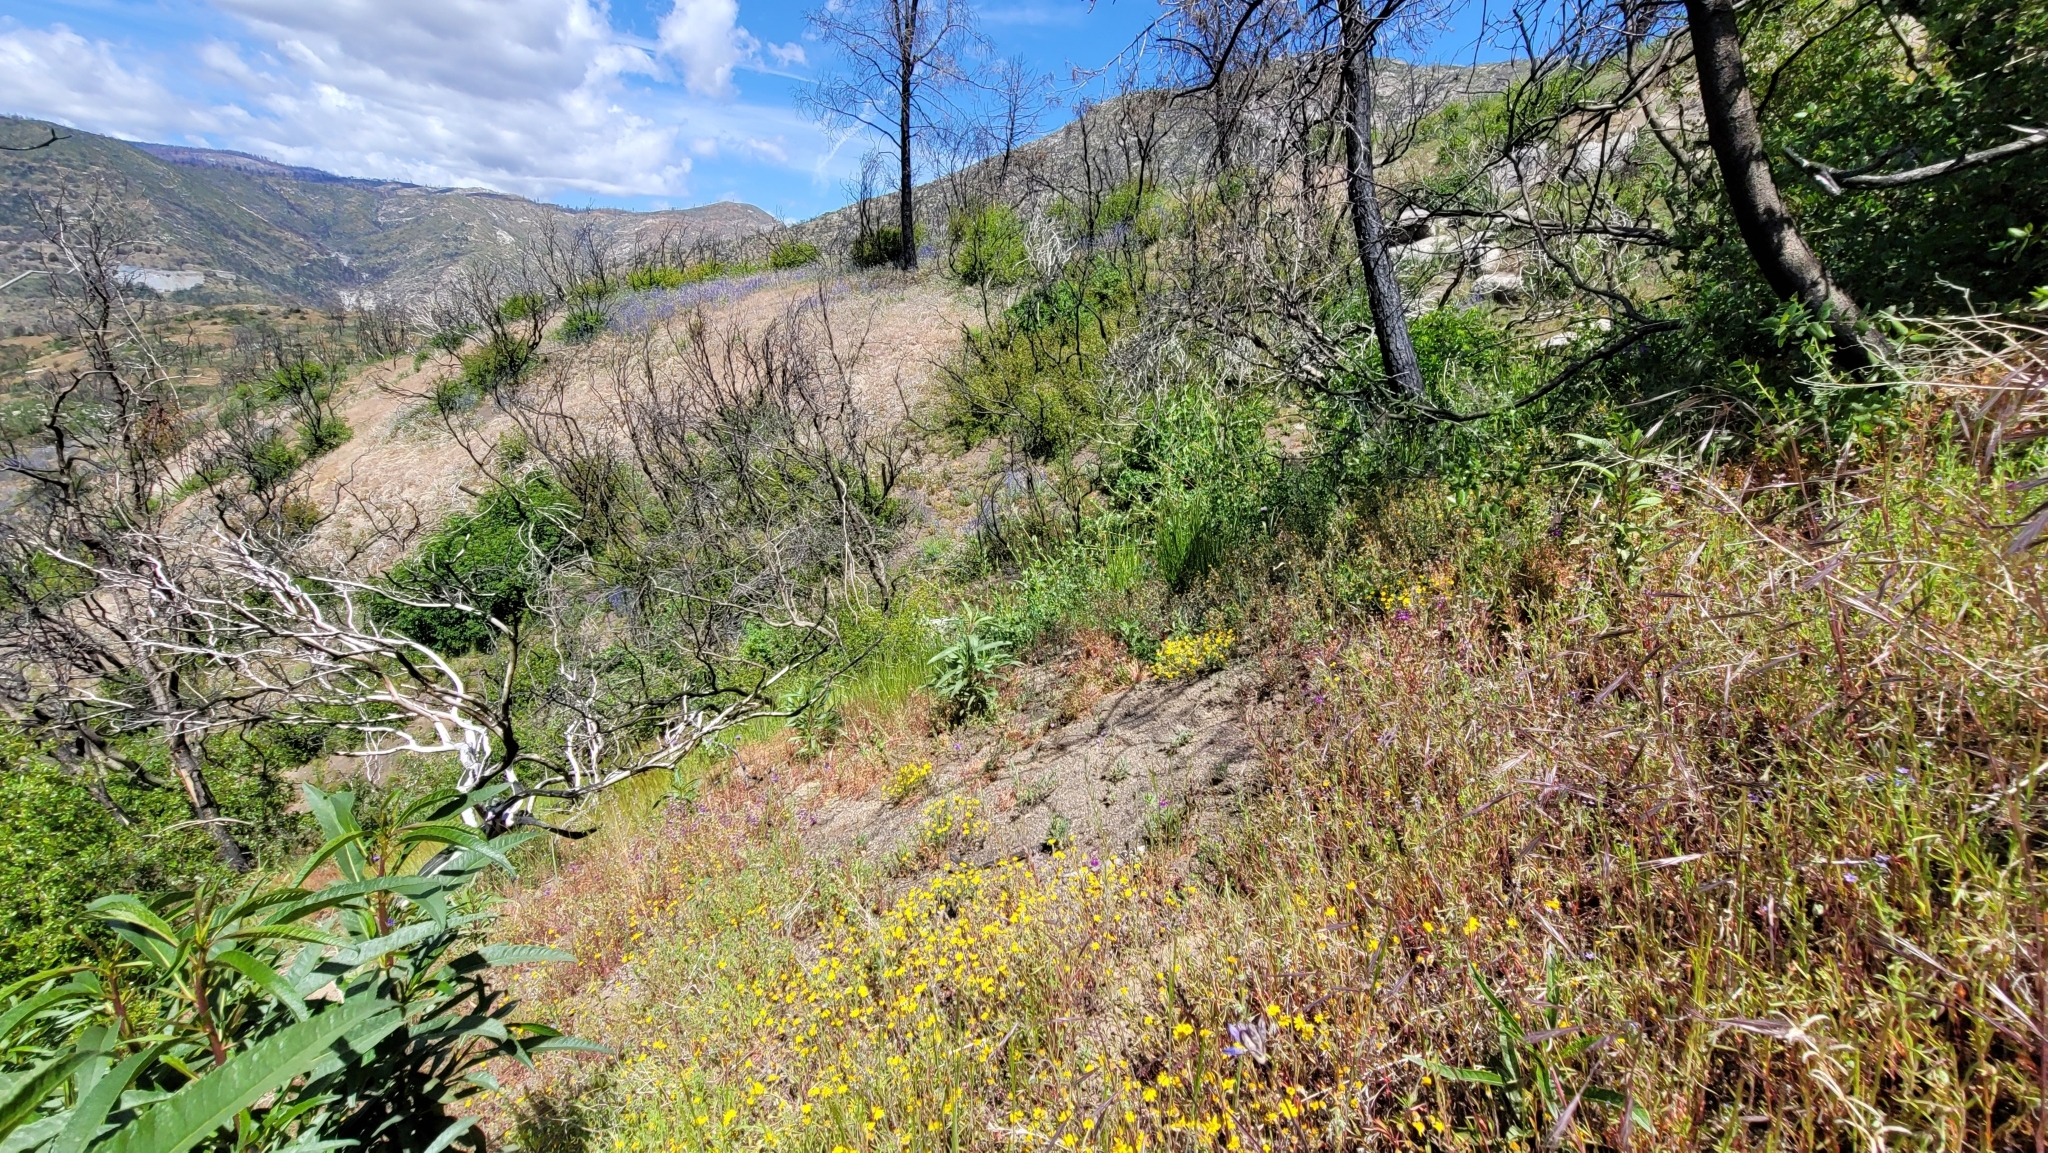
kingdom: Plantae
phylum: Tracheophyta
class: Magnoliopsida
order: Myrtales
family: Onagraceae
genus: Clarkia
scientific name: Clarkia modesta
